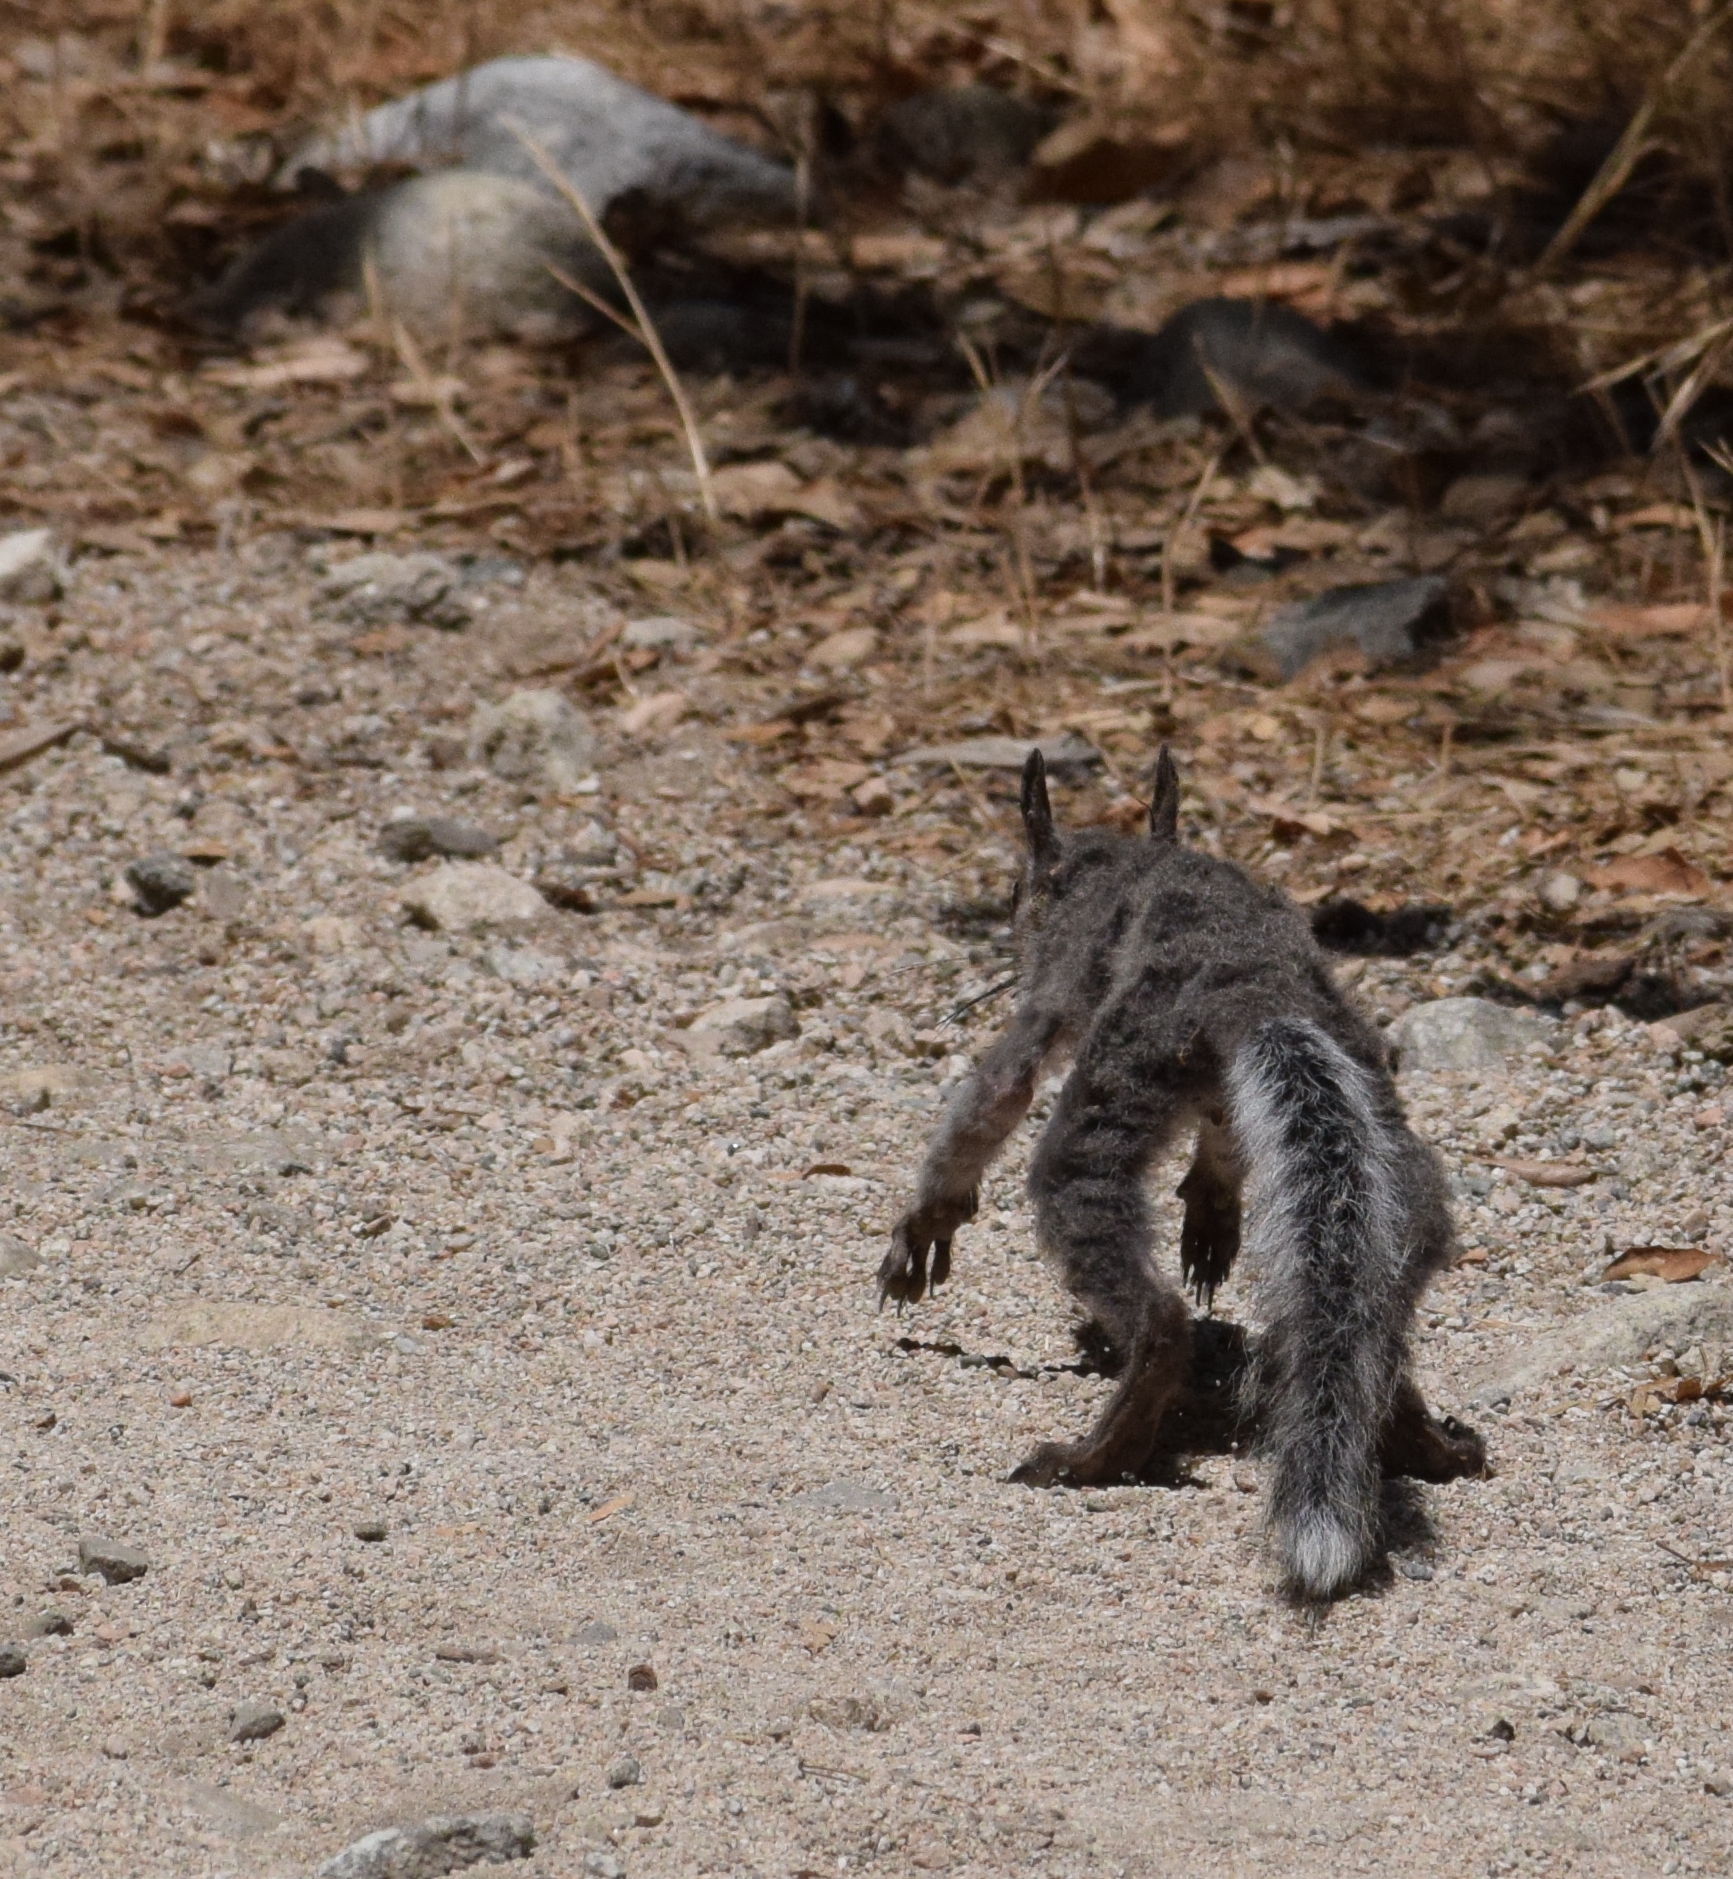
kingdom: Animalia
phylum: Chordata
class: Mammalia
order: Rodentia
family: Sciuridae
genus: Sciurus
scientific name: Sciurus griseus
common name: Western gray squirrel
